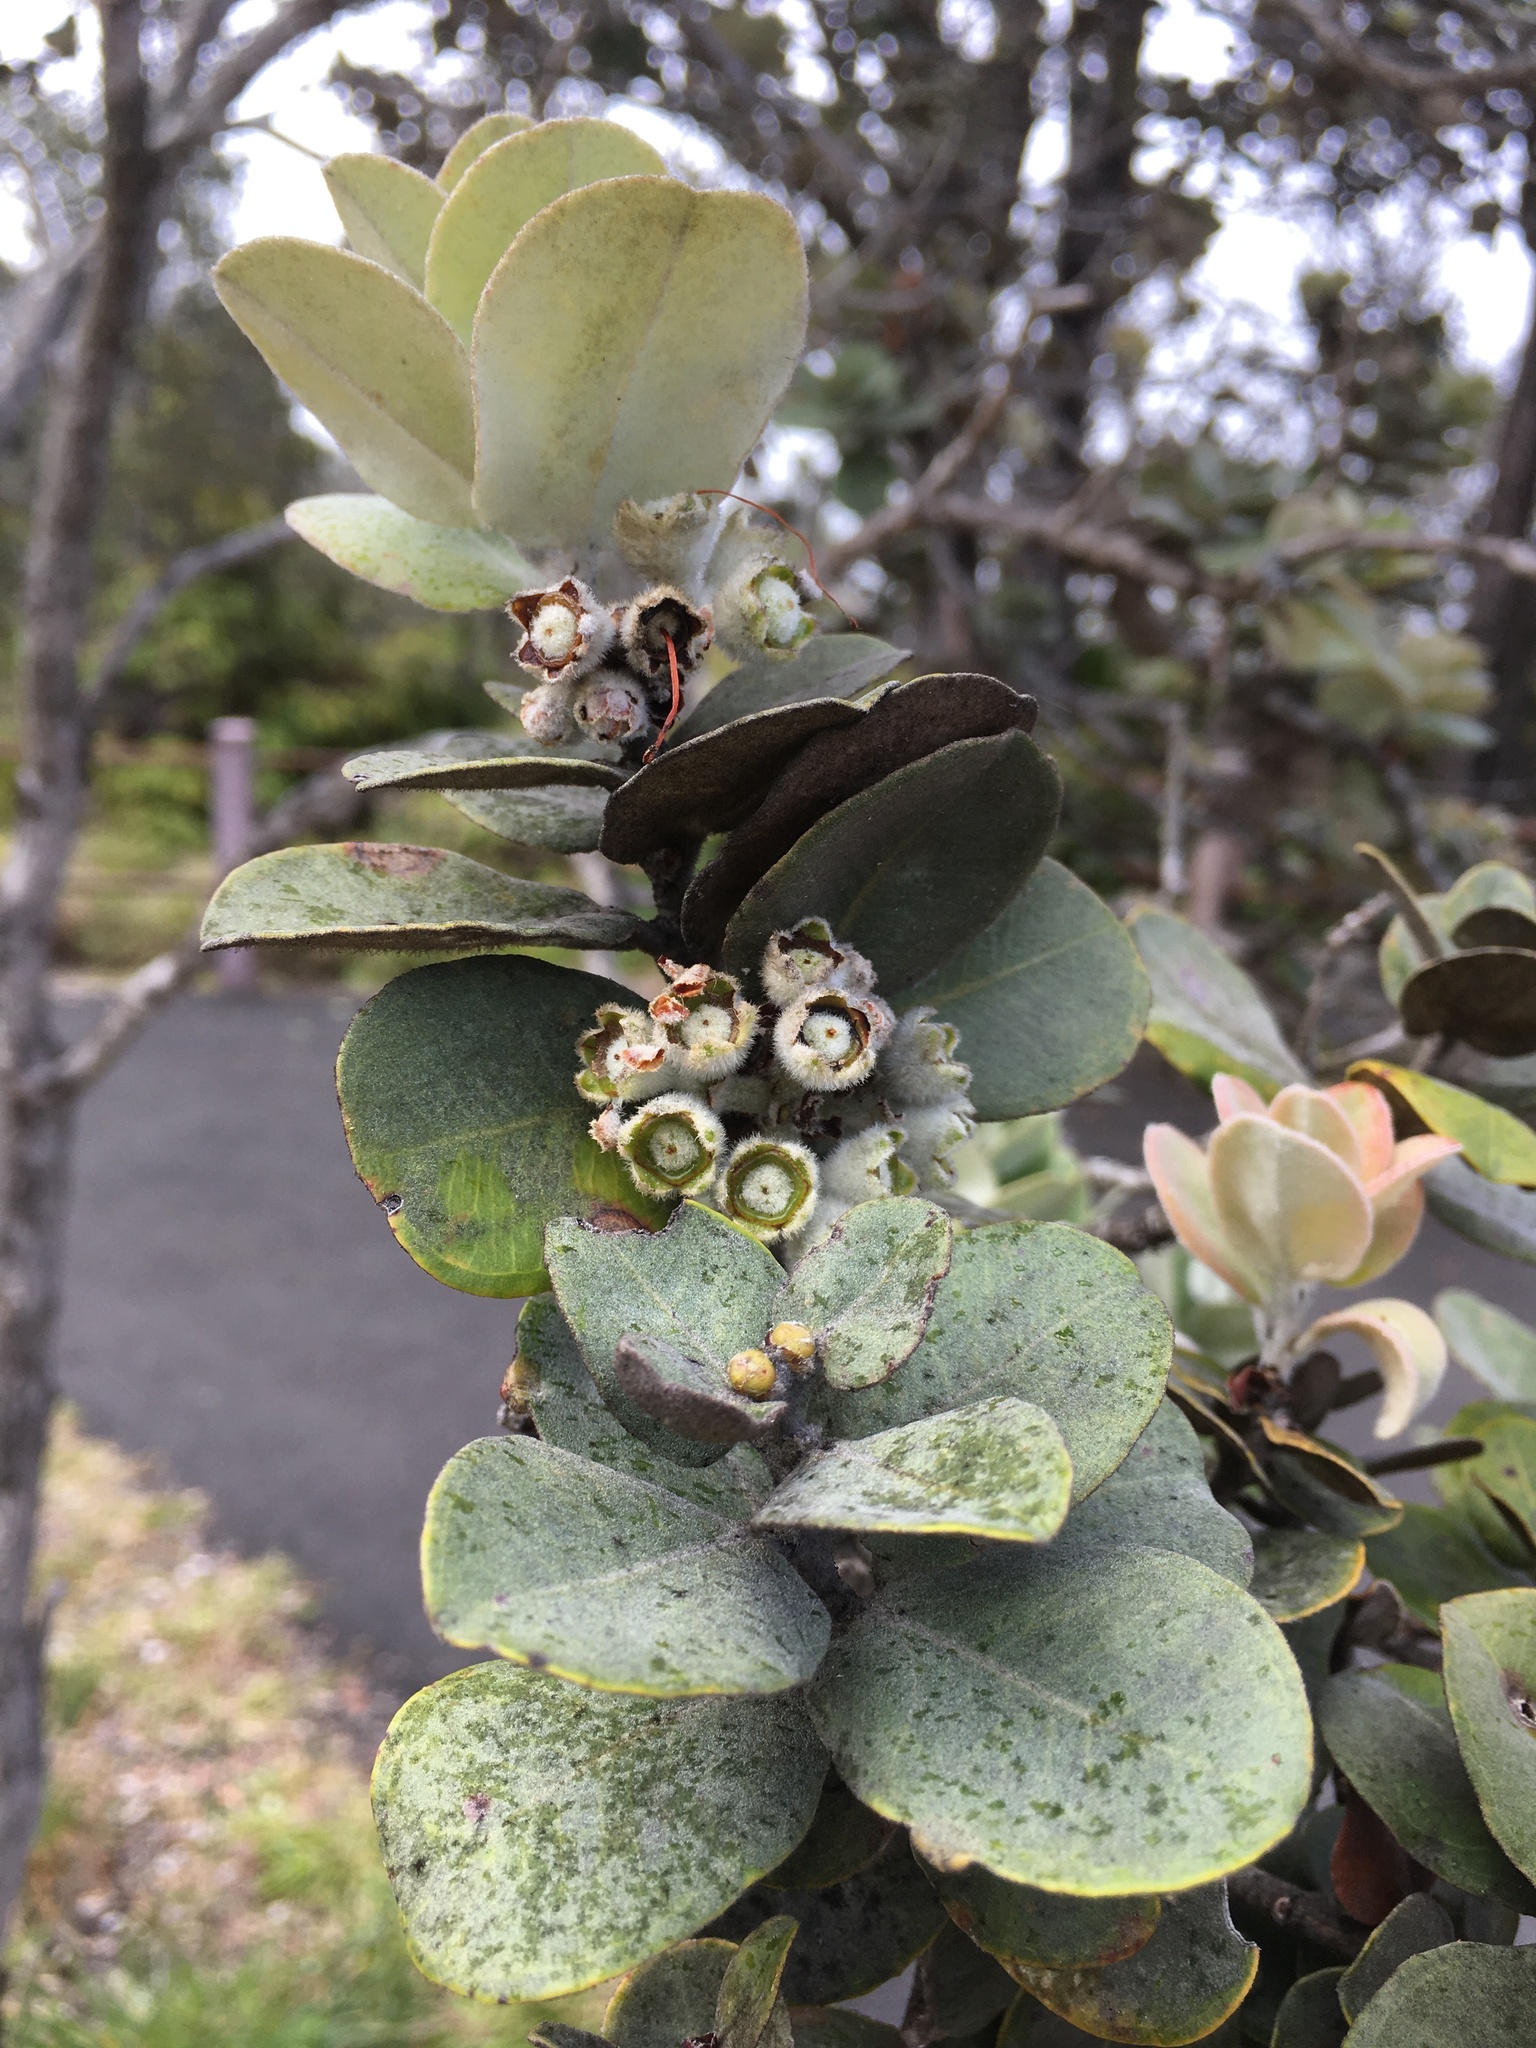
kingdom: Plantae
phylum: Tracheophyta
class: Magnoliopsida
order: Myrtales
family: Myrtaceae
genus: Metrosideros
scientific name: Metrosideros polymorpha
